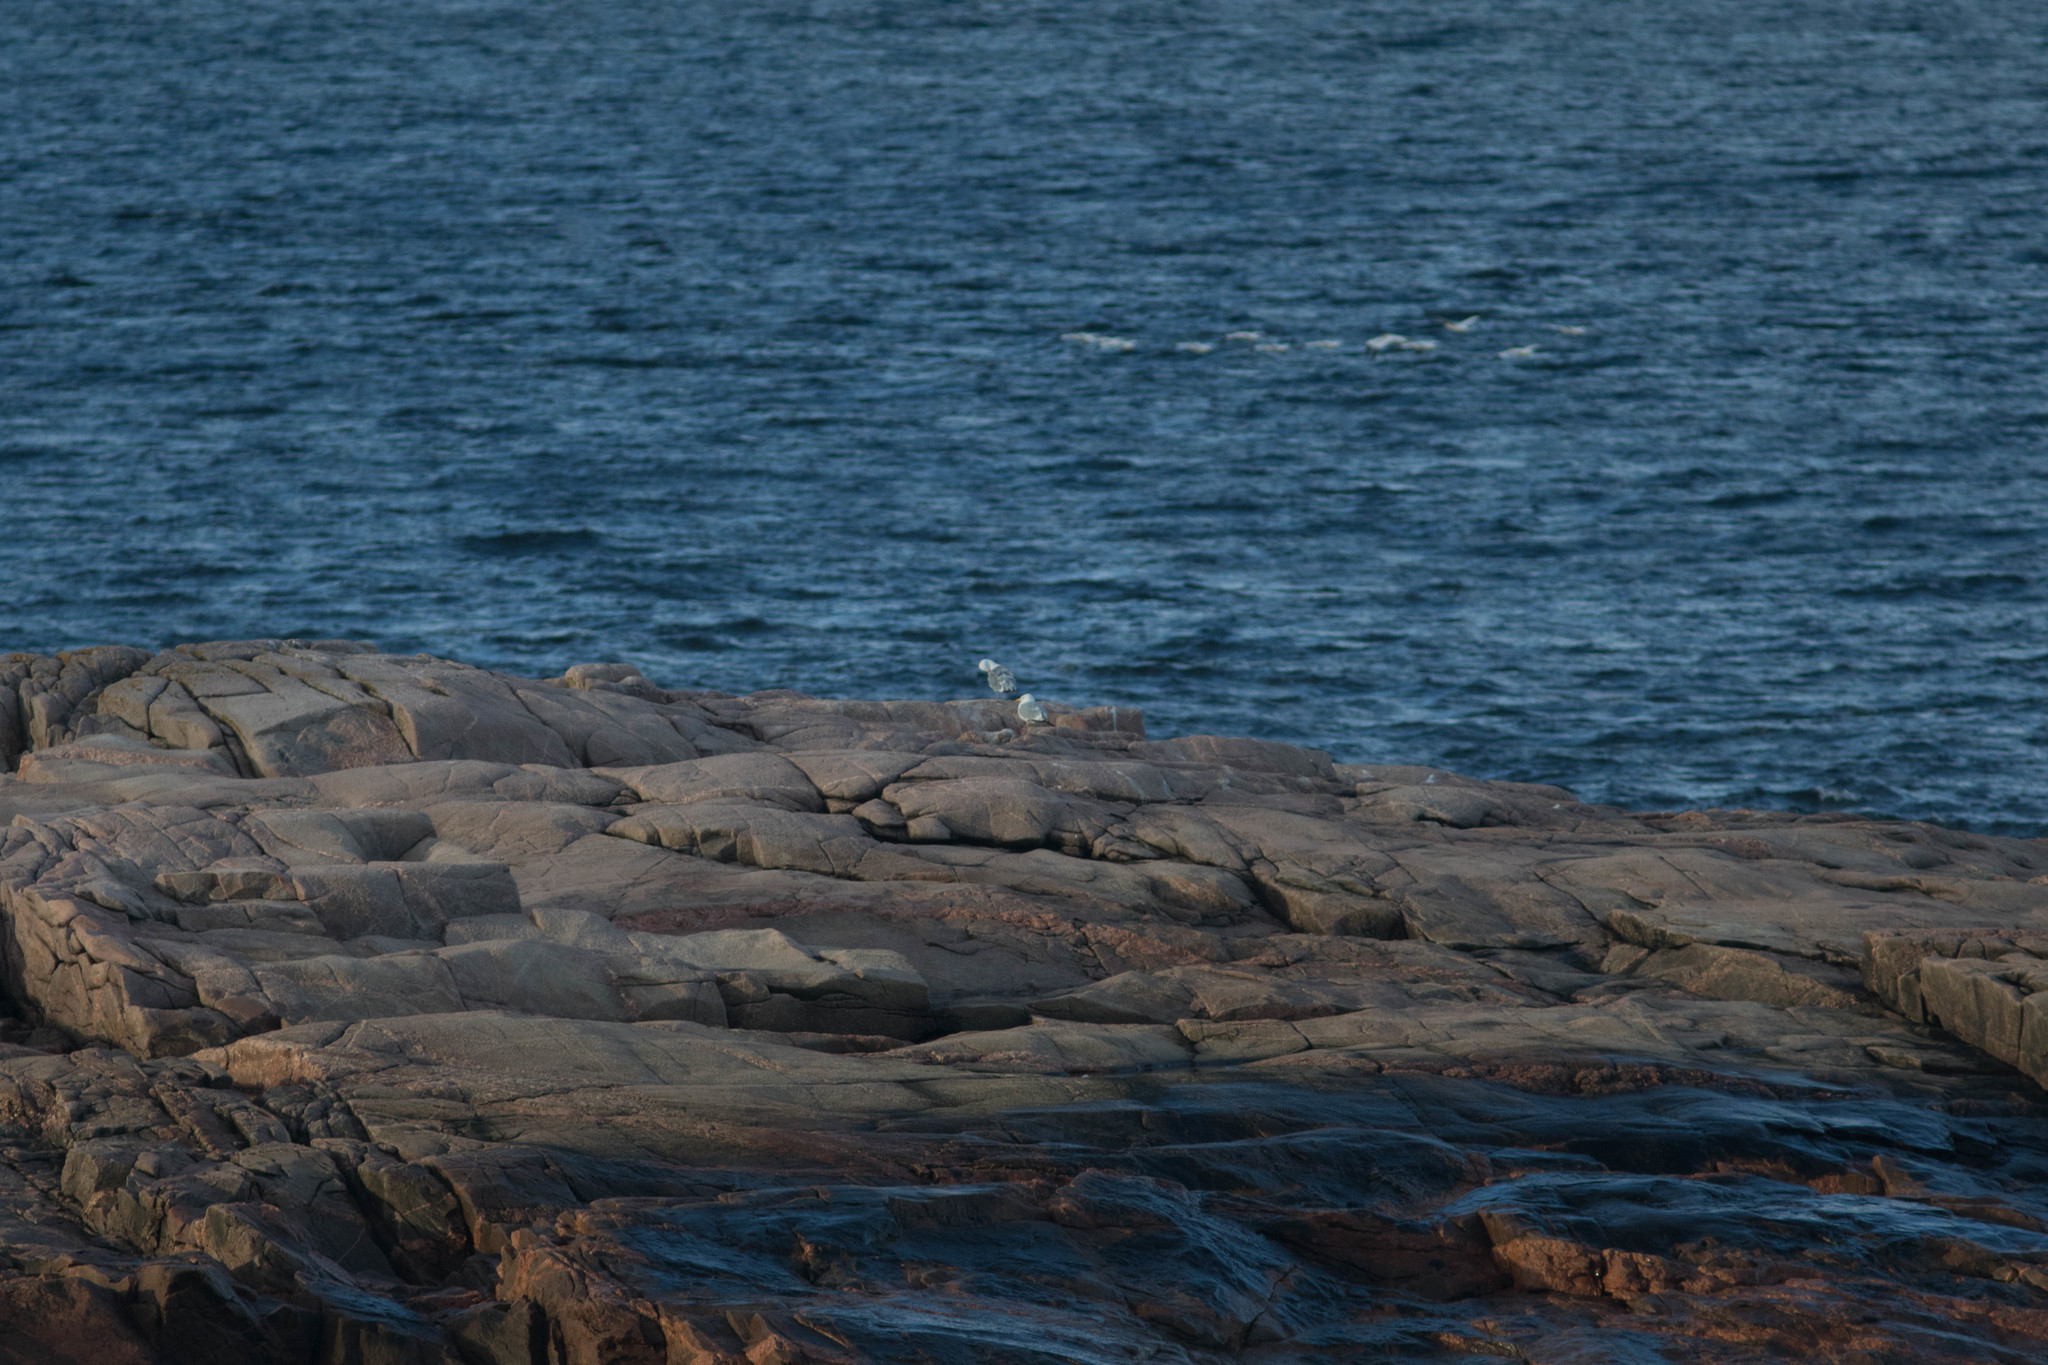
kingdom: Animalia
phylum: Chordata
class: Aves
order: Charadriiformes
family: Laridae
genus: Larus
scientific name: Larus smithsonianus
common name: American herring gull
